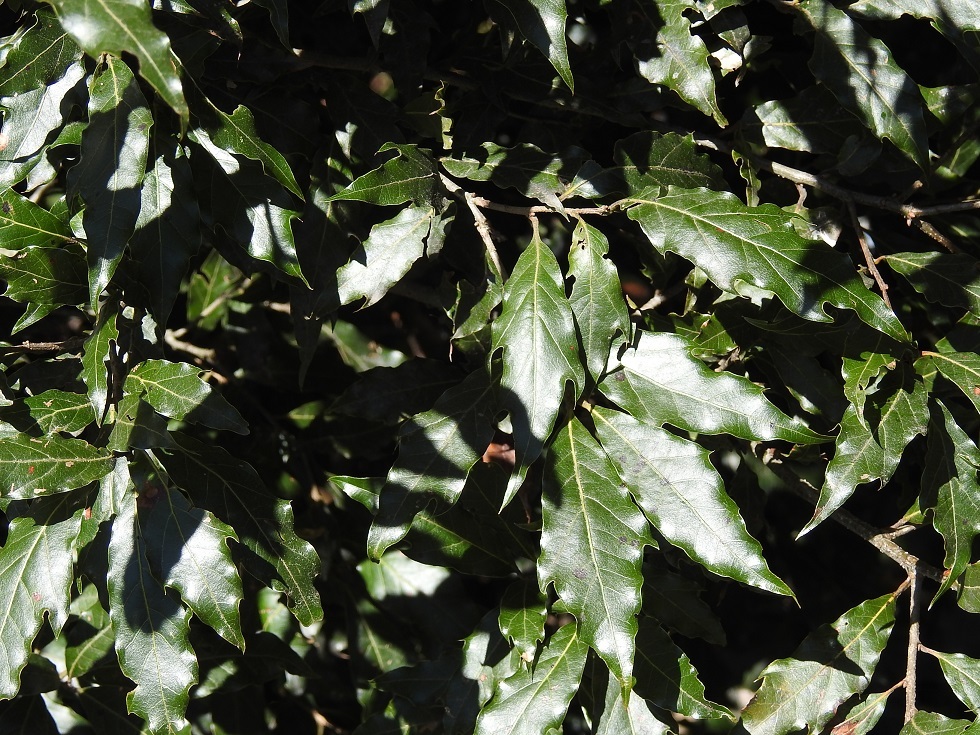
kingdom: Plantae
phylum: Tracheophyta
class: Magnoliopsida
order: Fagales
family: Fagaceae
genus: Quercus
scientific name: Quercus laurina
